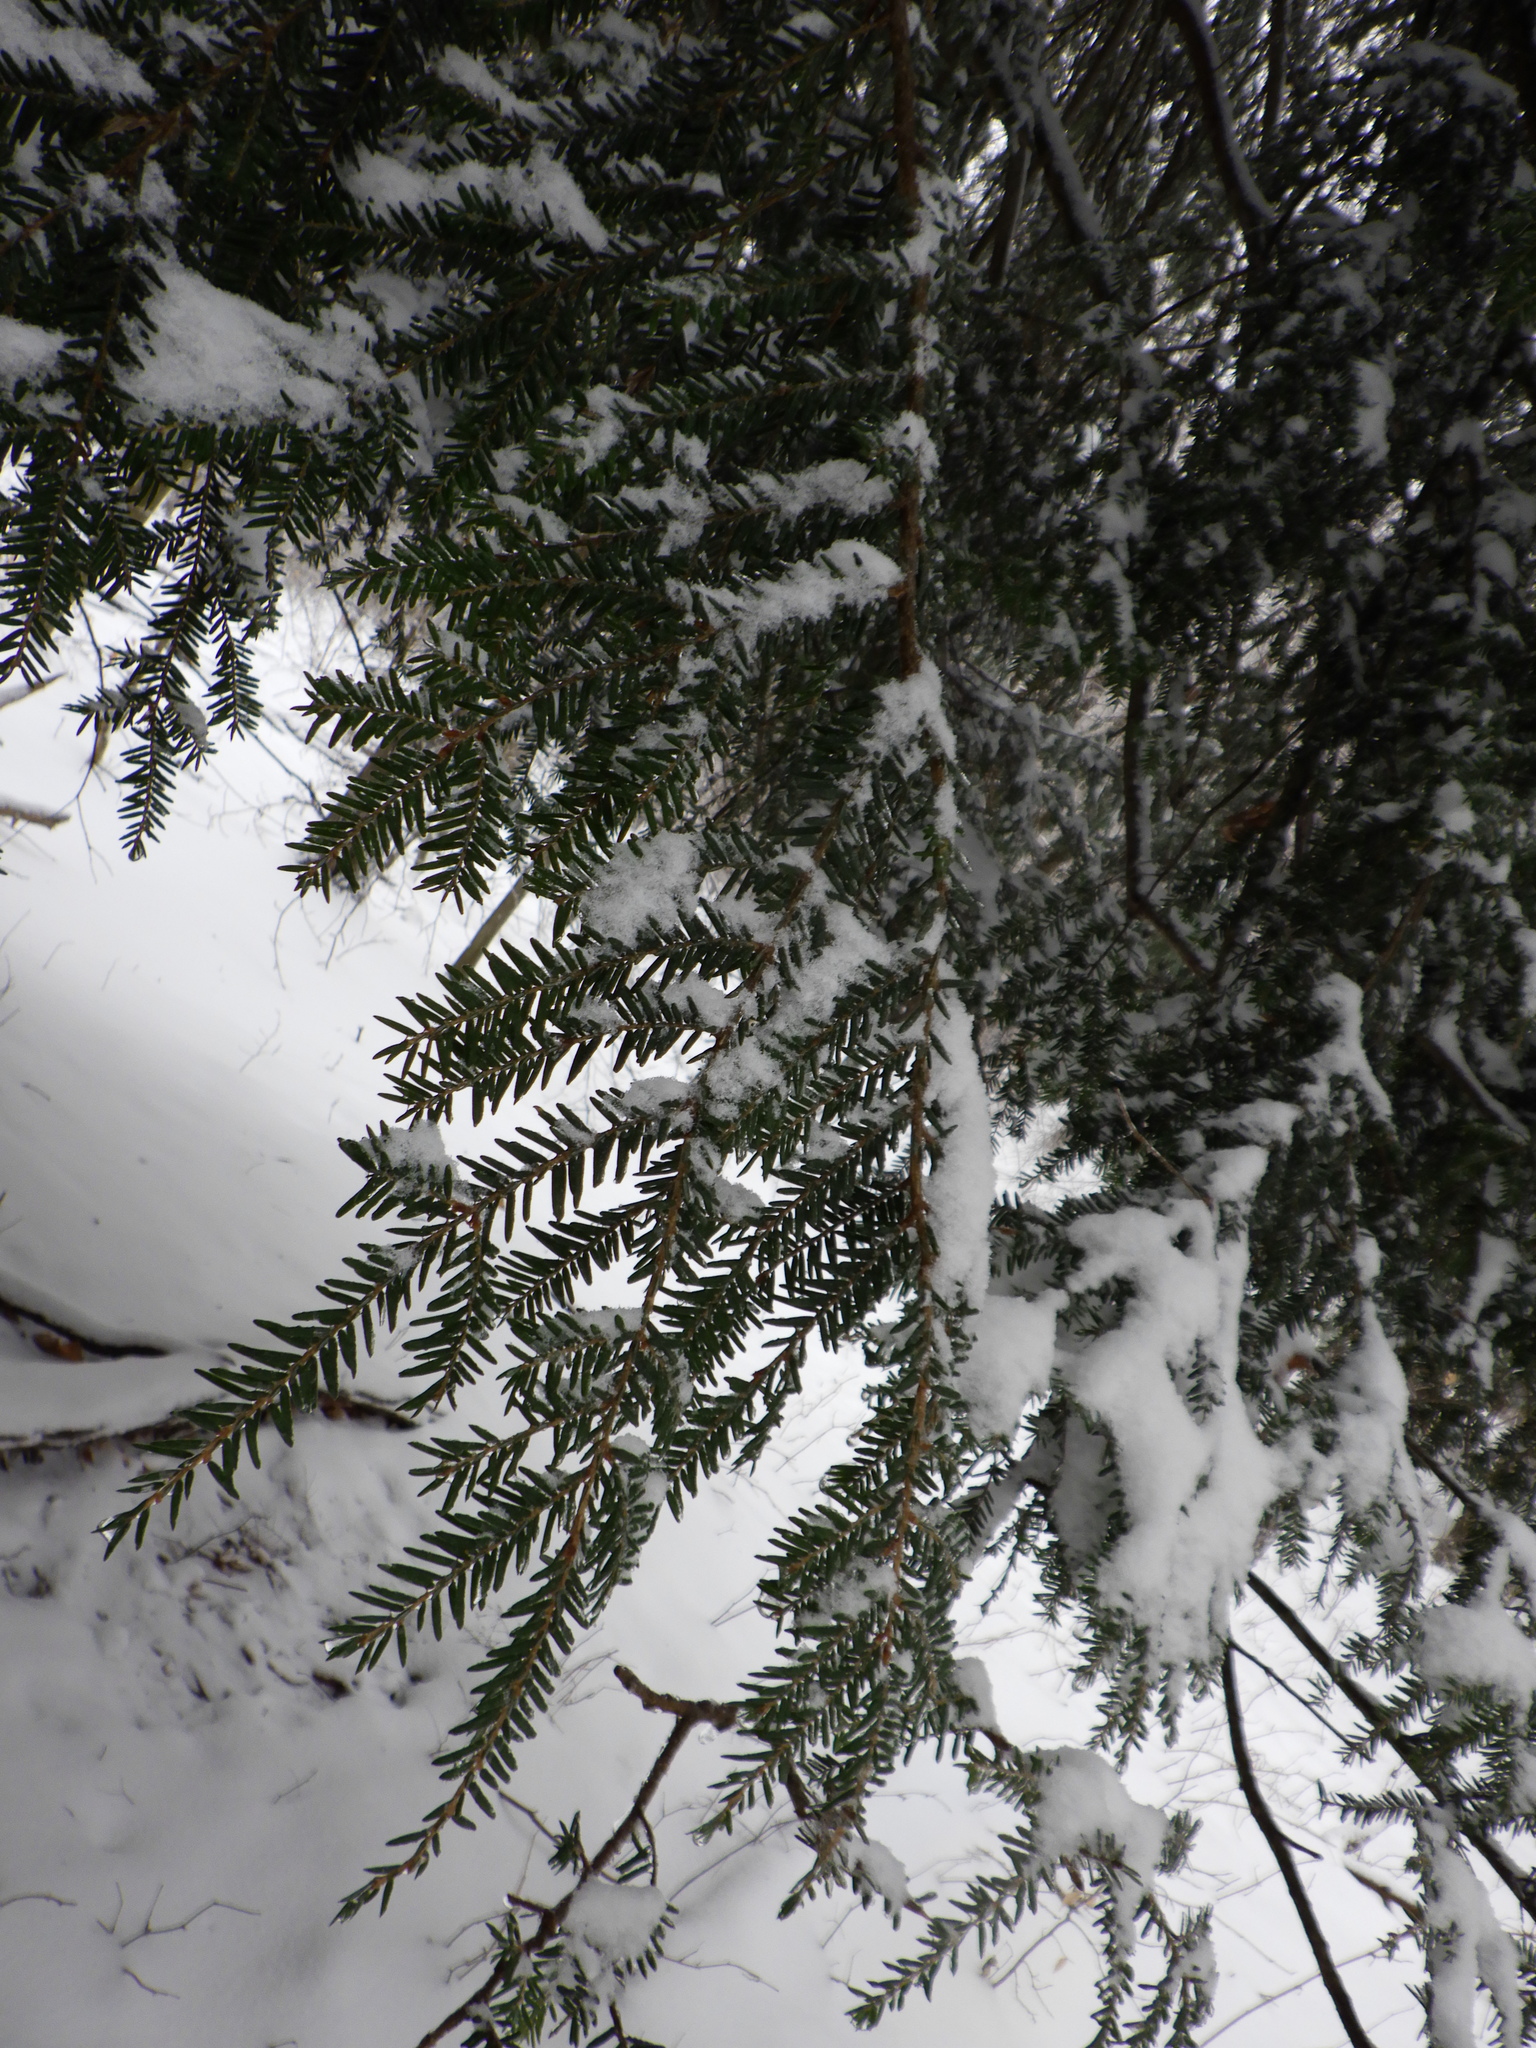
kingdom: Plantae
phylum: Tracheophyta
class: Pinopsida
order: Pinales
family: Pinaceae
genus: Tsuga
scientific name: Tsuga canadensis
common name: Eastern hemlock
